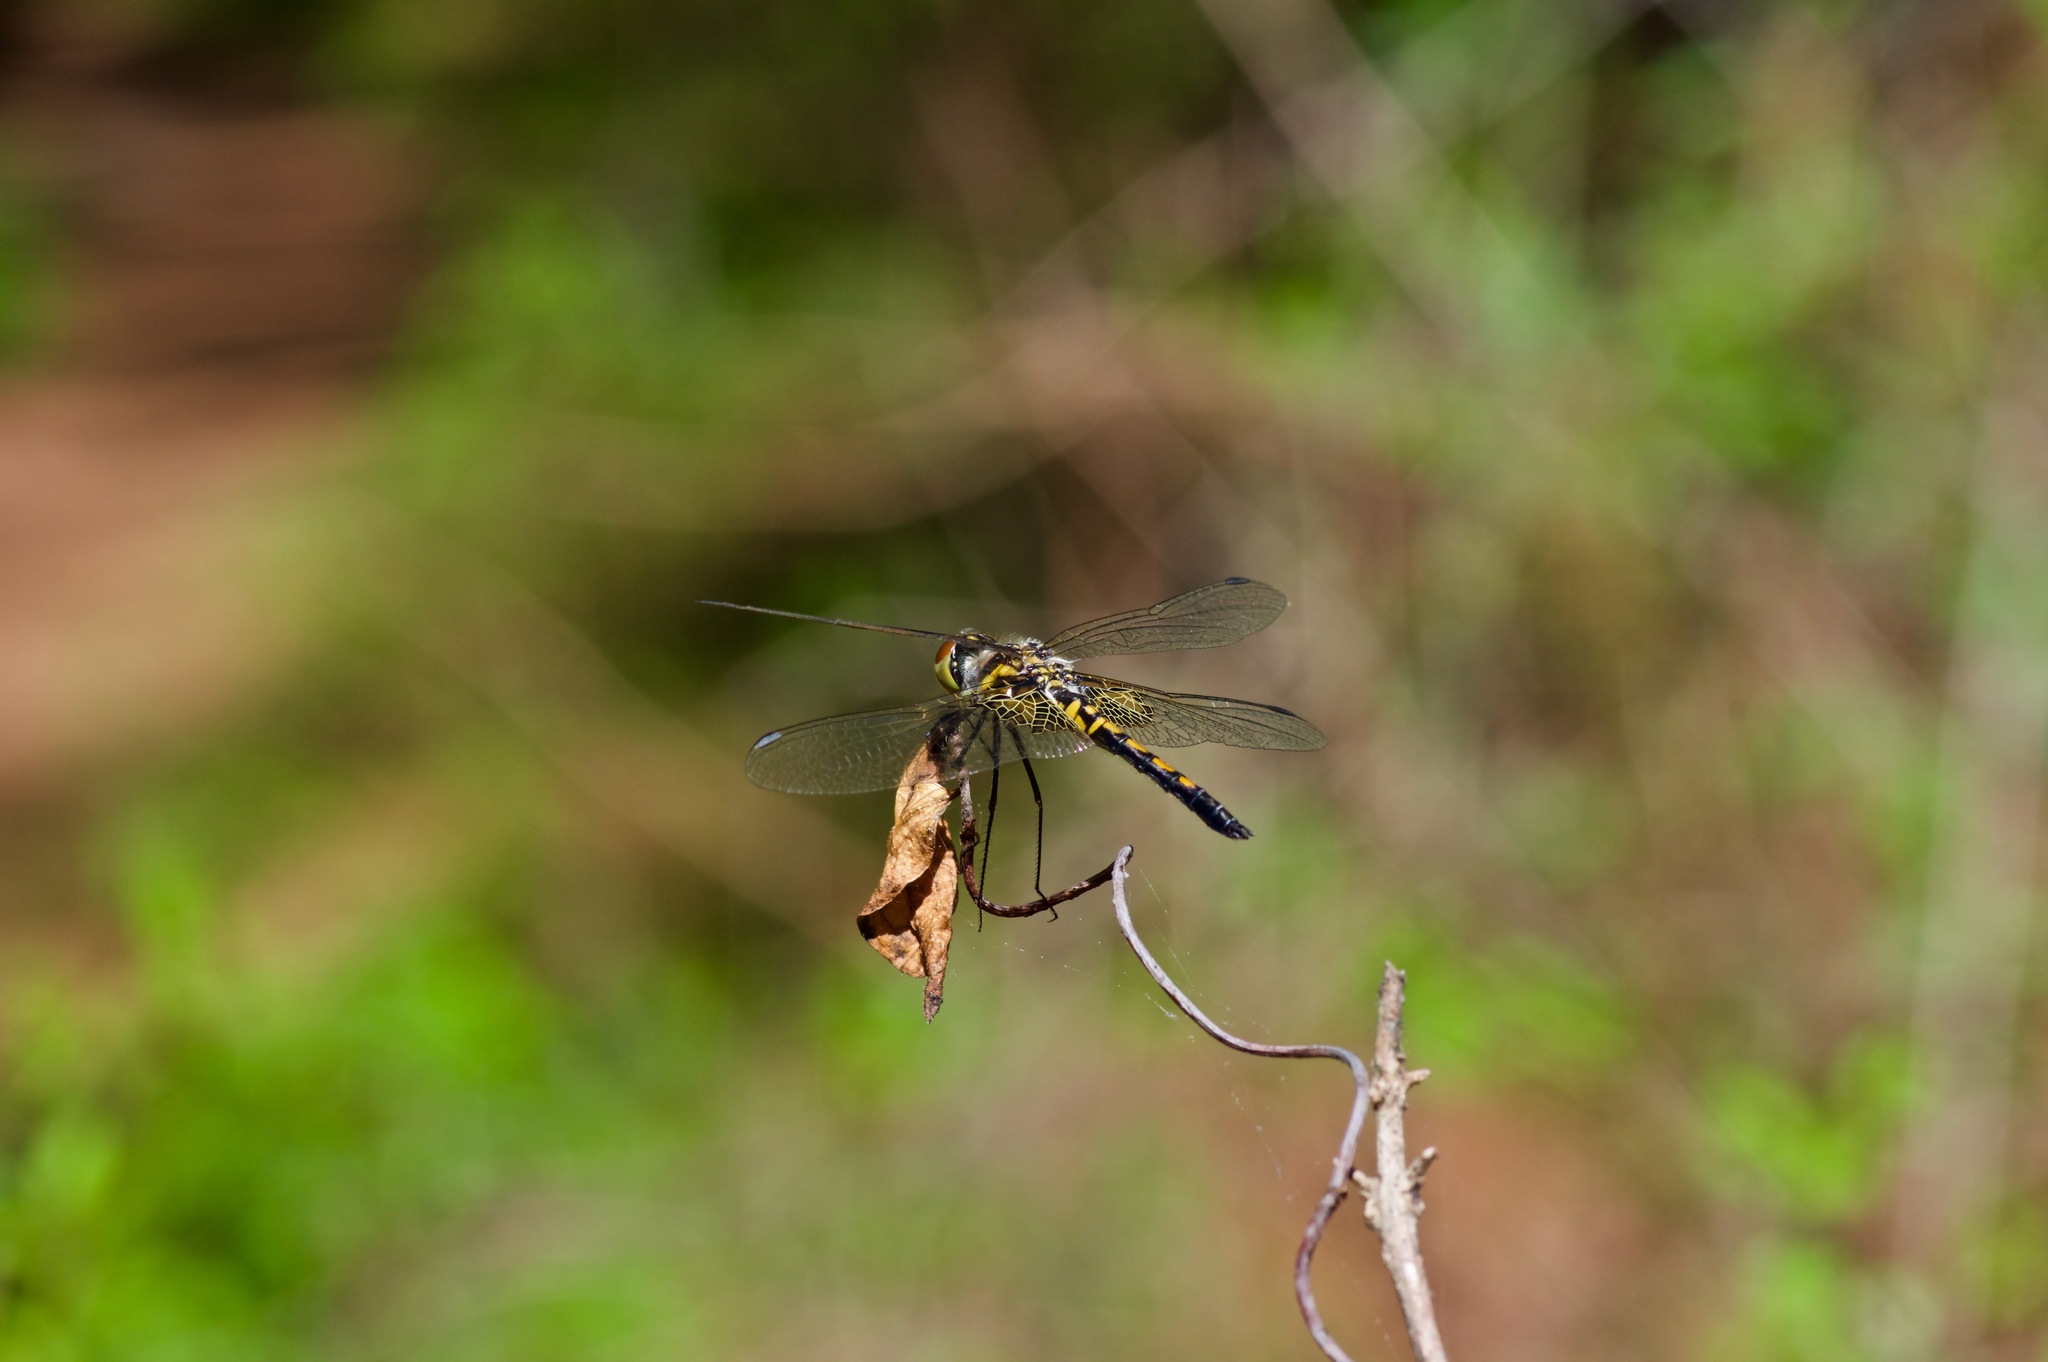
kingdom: Animalia
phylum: Arthropoda
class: Insecta
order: Odonata
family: Libellulidae
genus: Celithemis
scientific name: Celithemis ornata
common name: Ornate pennant
